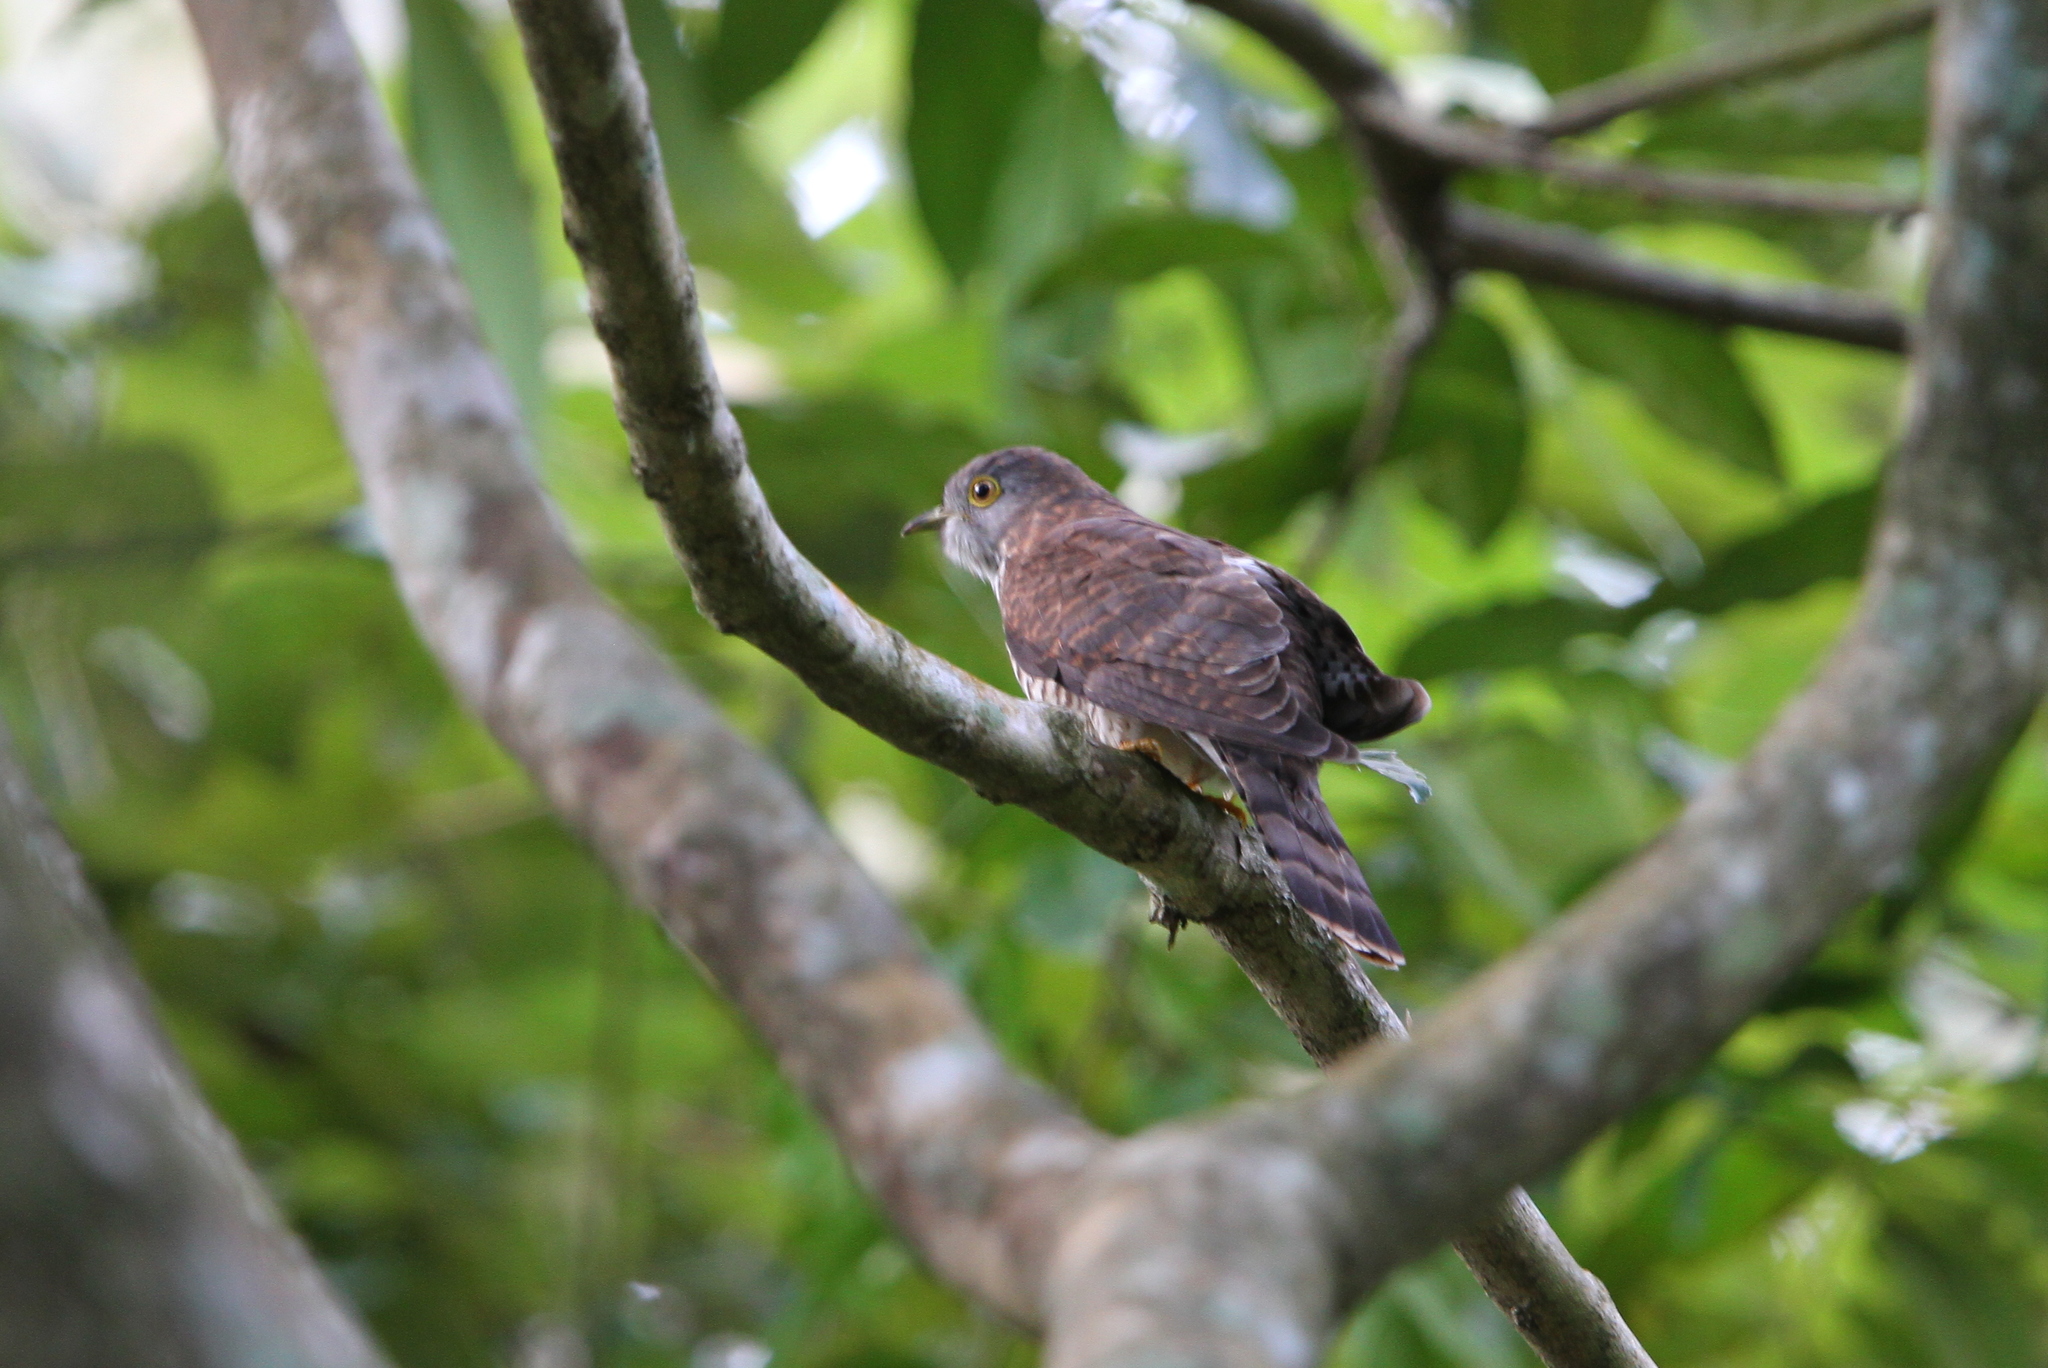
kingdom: Animalia
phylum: Chordata
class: Aves
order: Cuculiformes
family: Cuculidae
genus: Cuculus
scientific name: Cuculus varius
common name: Common hawk cuckoo
